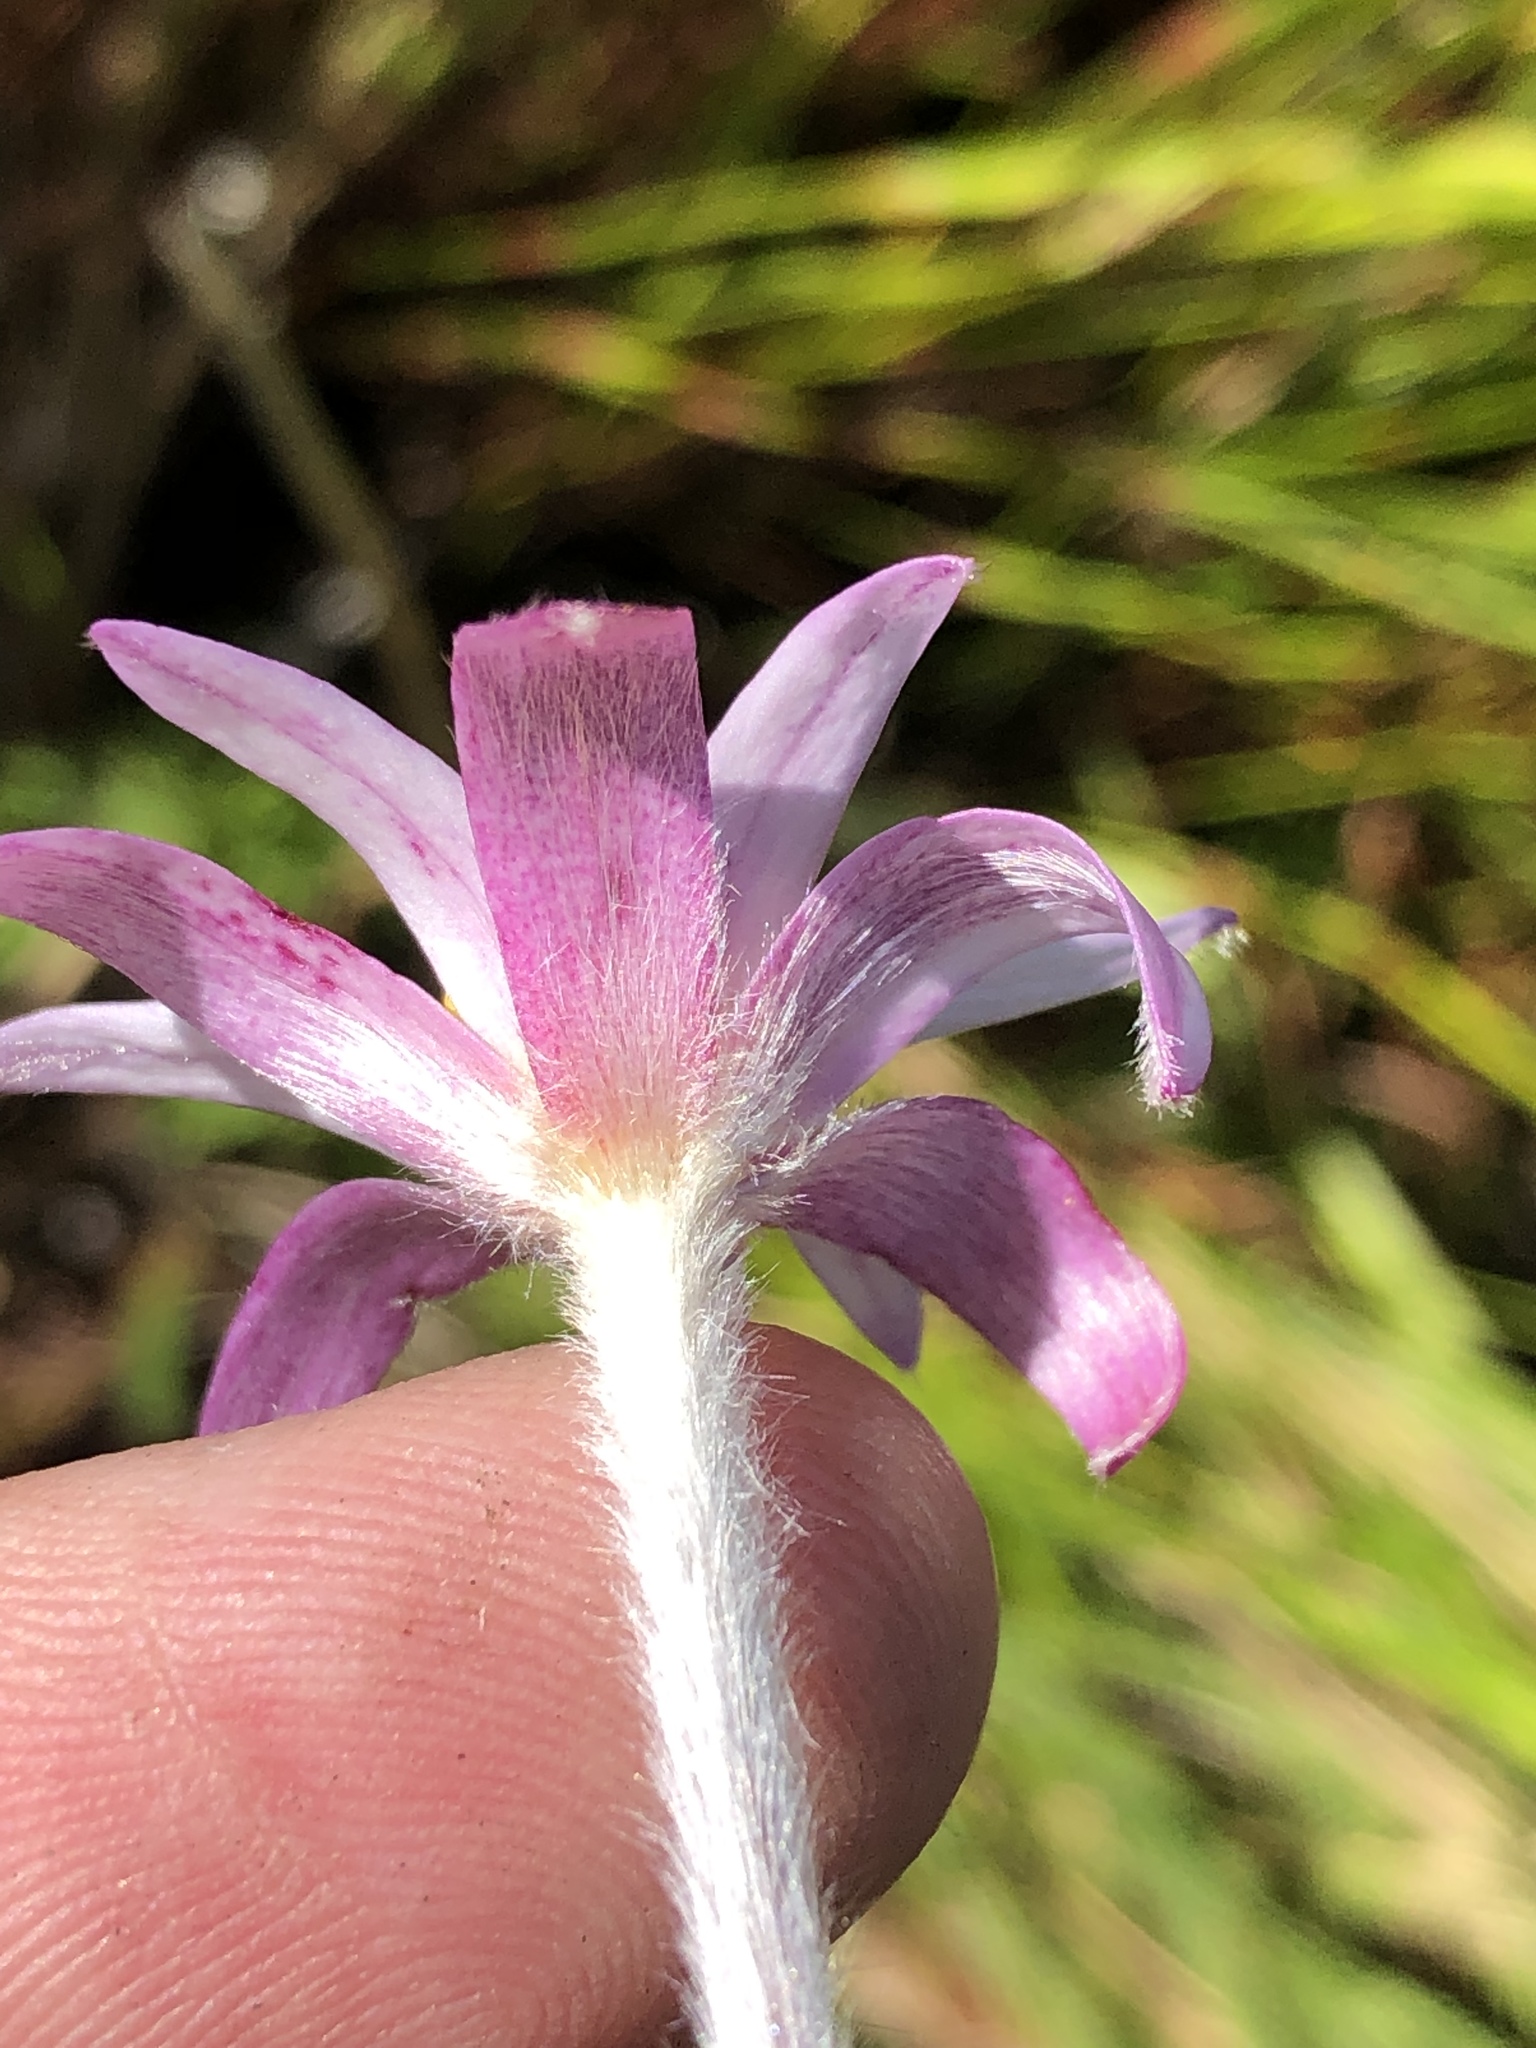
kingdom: Plantae
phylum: Tracheophyta
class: Magnoliopsida
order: Ranunculales
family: Ranunculaceae
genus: Knowltonia
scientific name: Knowltonia tenuifolia
